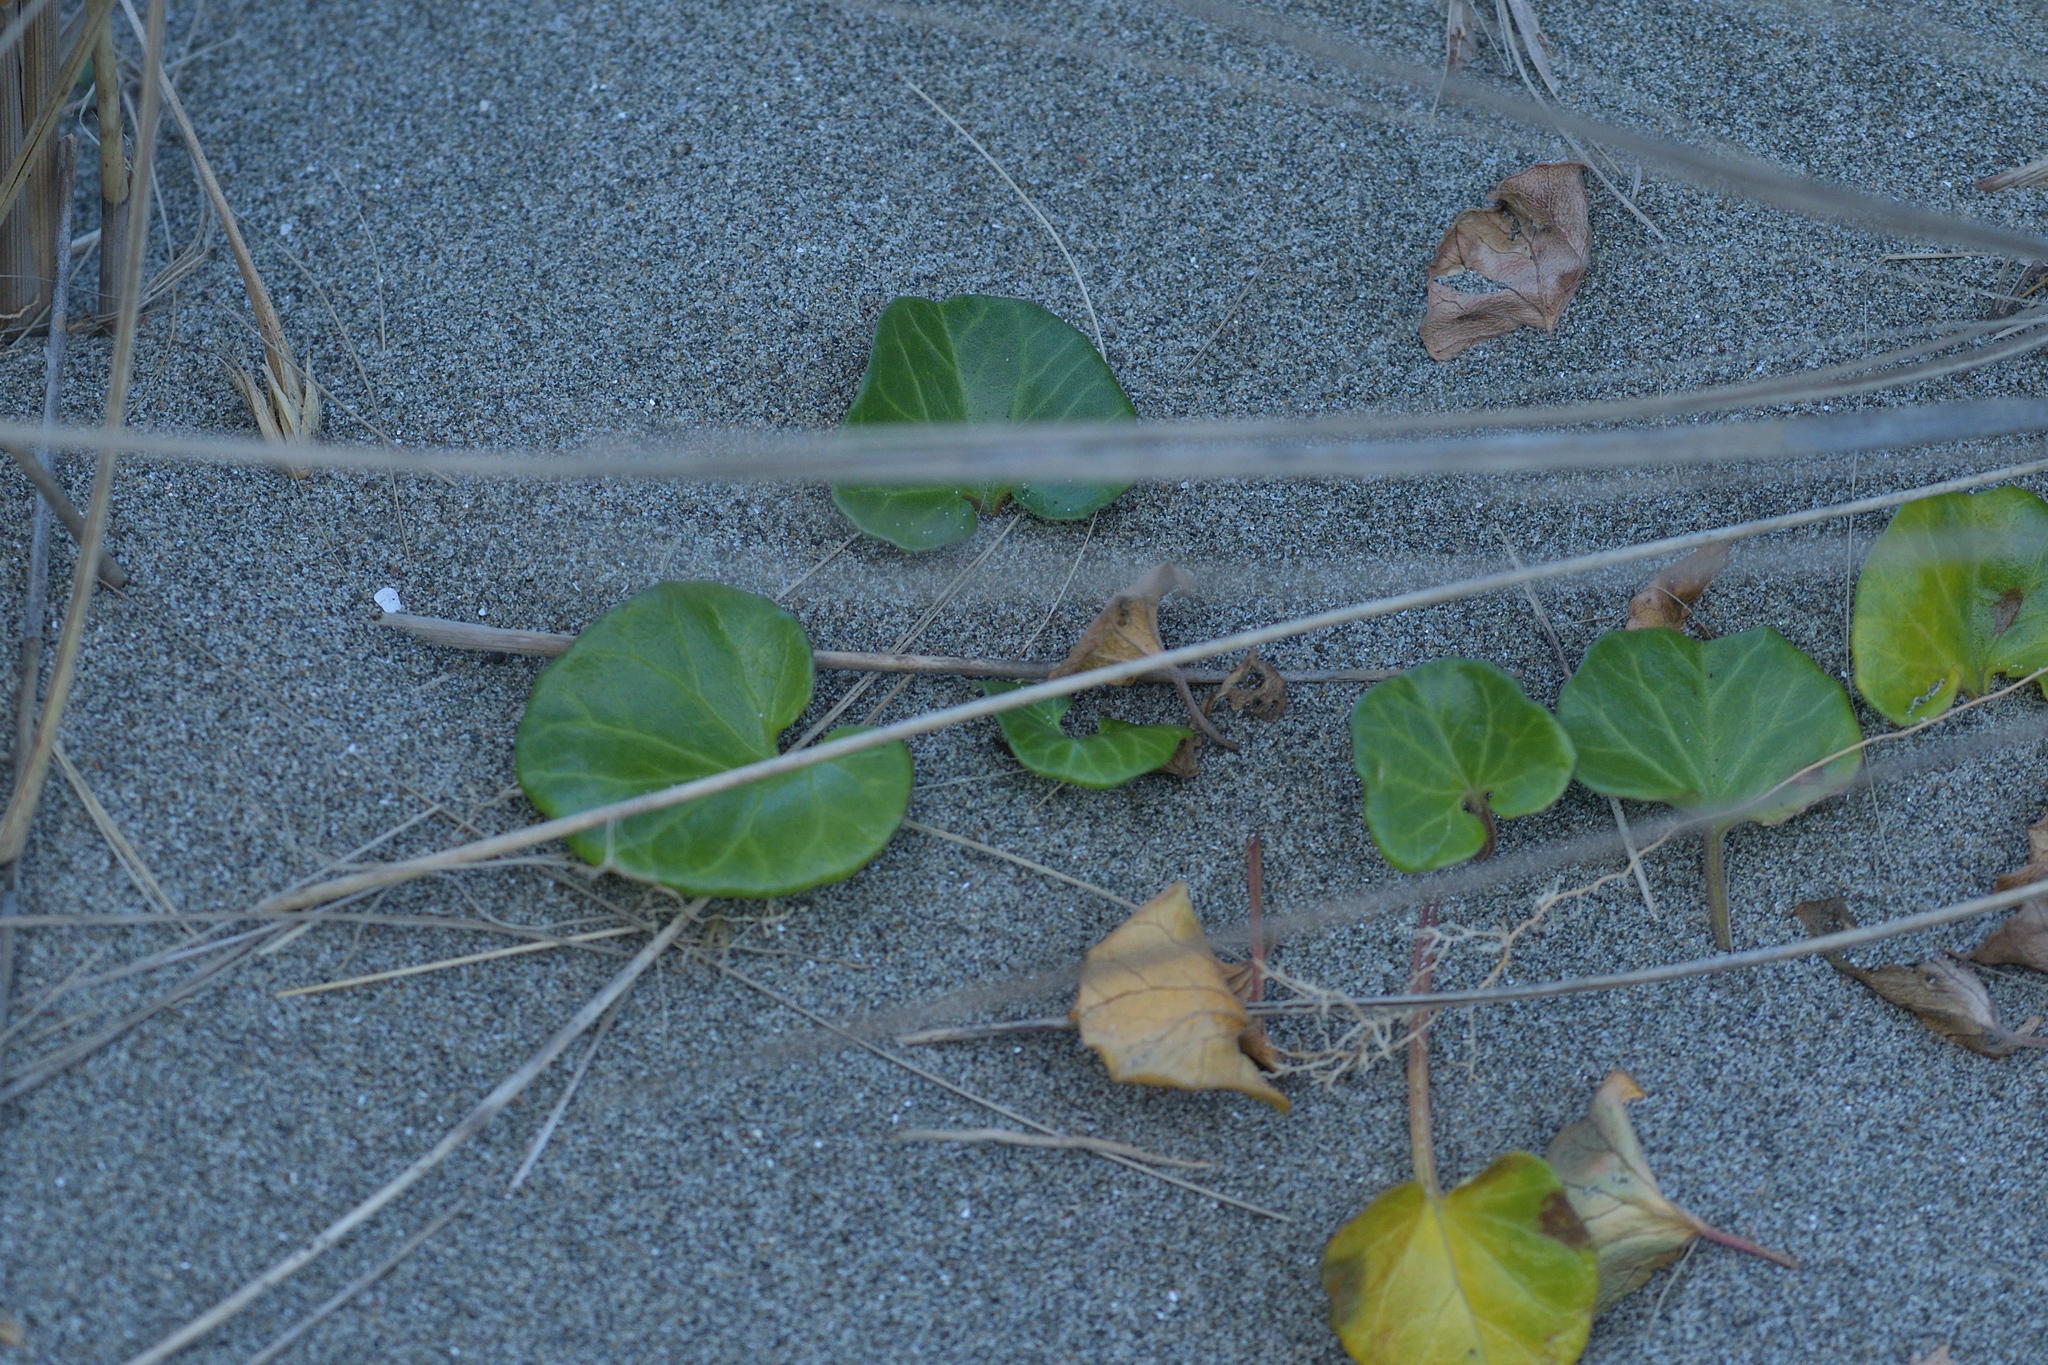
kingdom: Plantae
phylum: Tracheophyta
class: Magnoliopsida
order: Solanales
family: Convolvulaceae
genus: Calystegia
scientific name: Calystegia soldanella
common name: Sea bindweed
